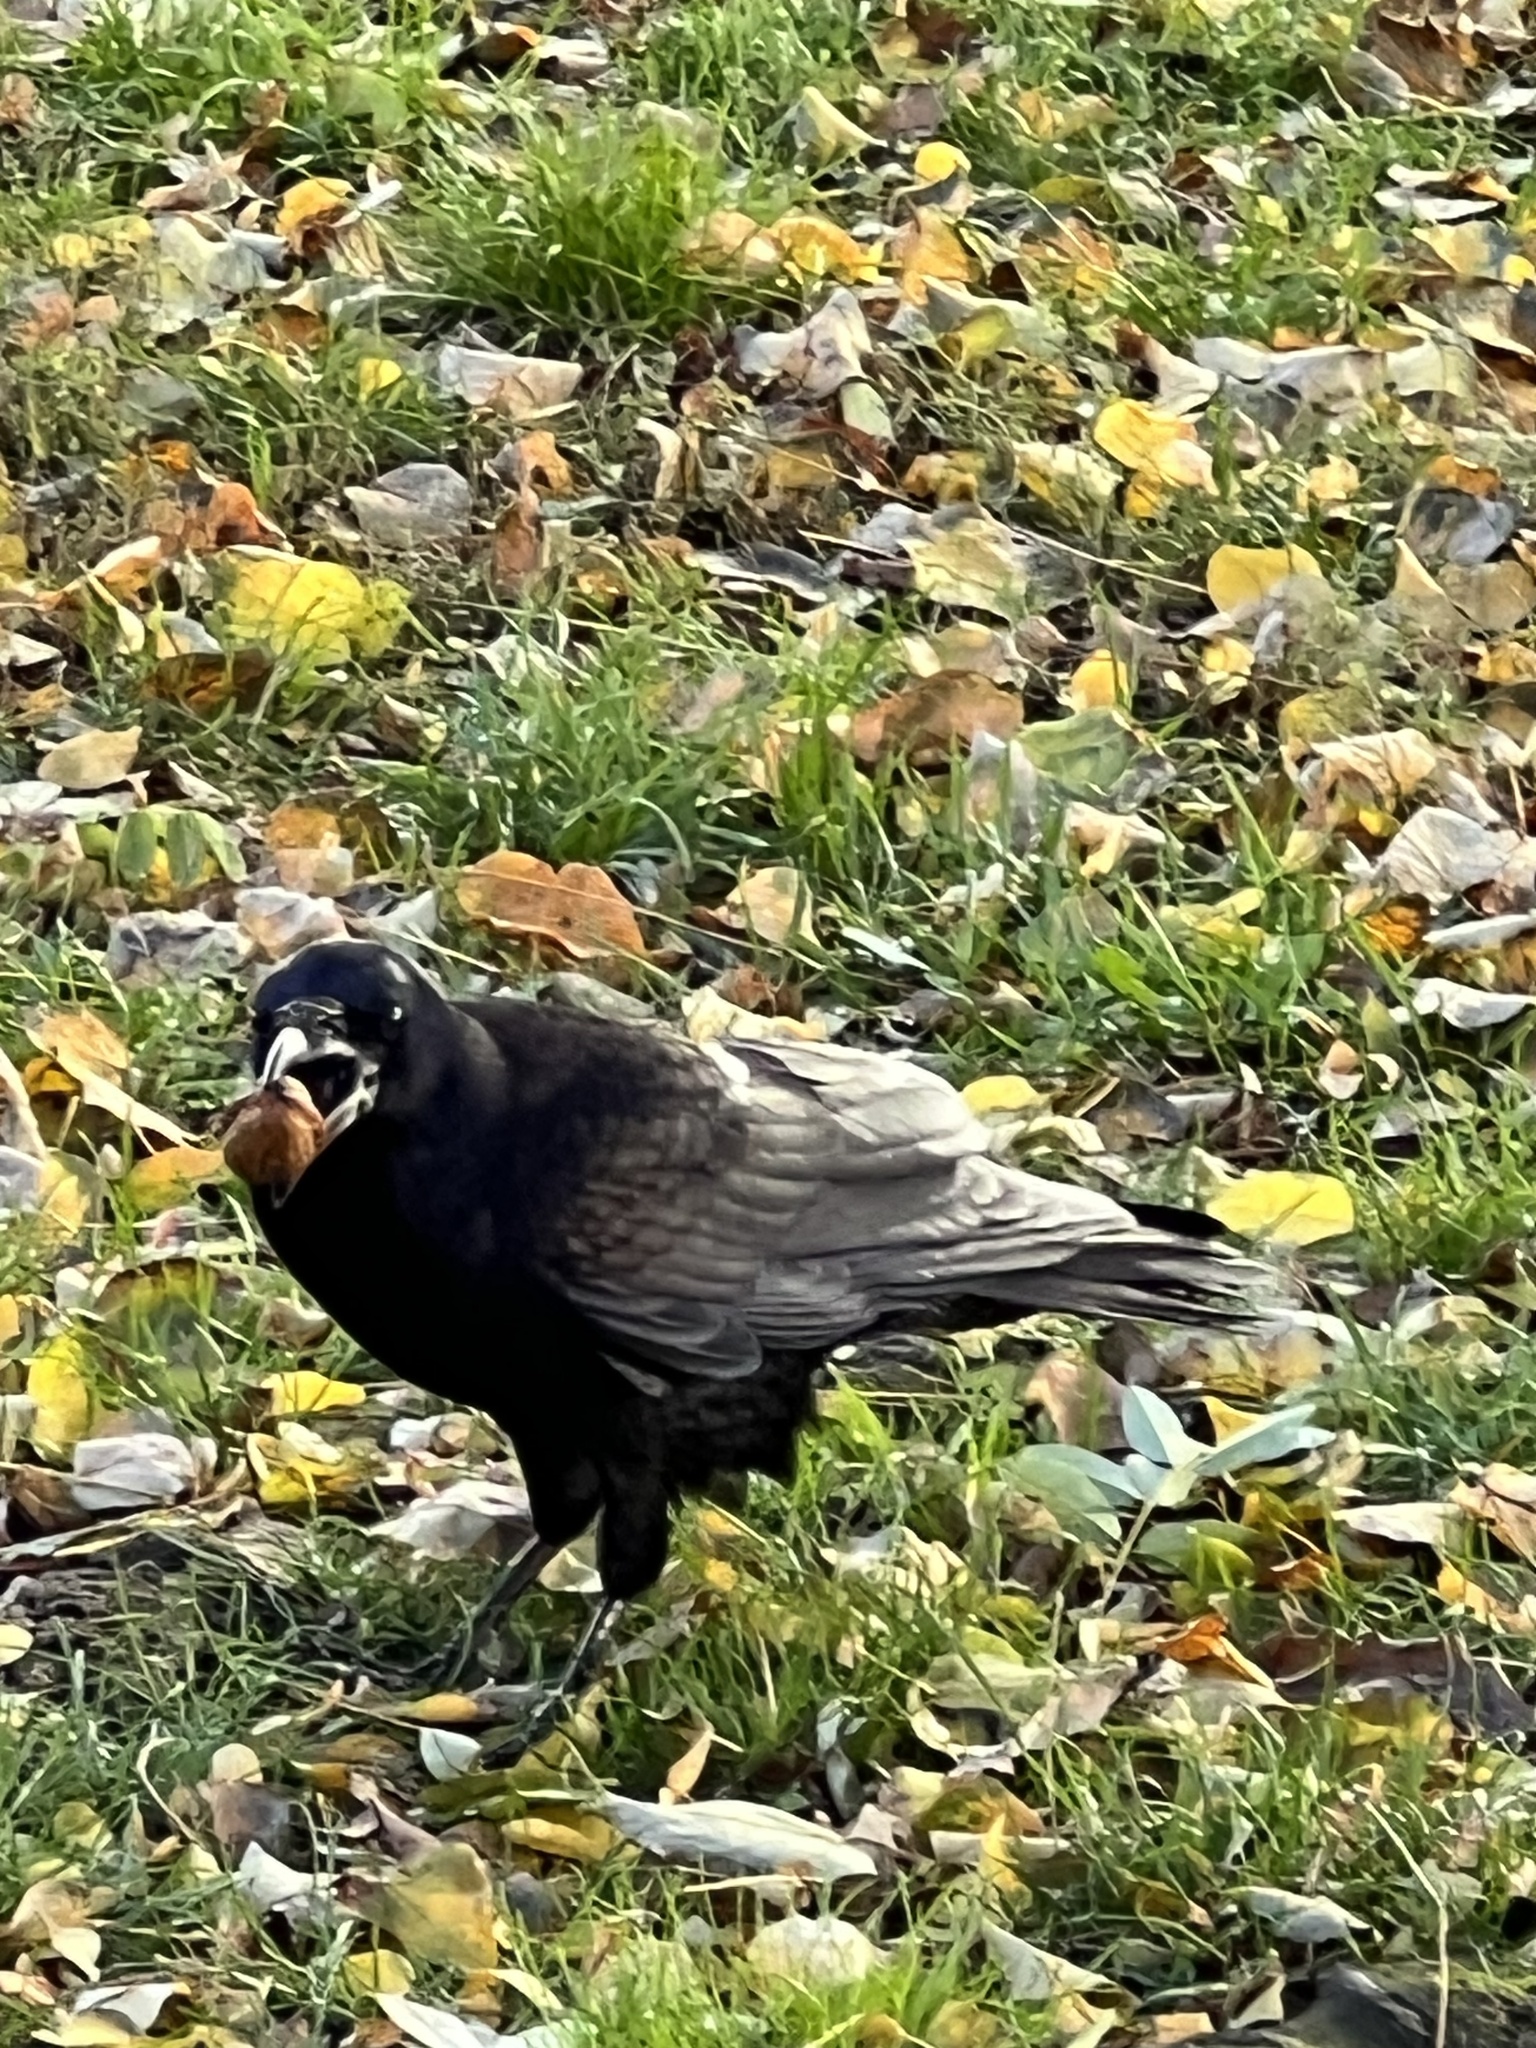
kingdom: Animalia
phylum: Chordata
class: Aves
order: Passeriformes
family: Corvidae
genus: Corvus
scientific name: Corvus frugilegus
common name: Rook
